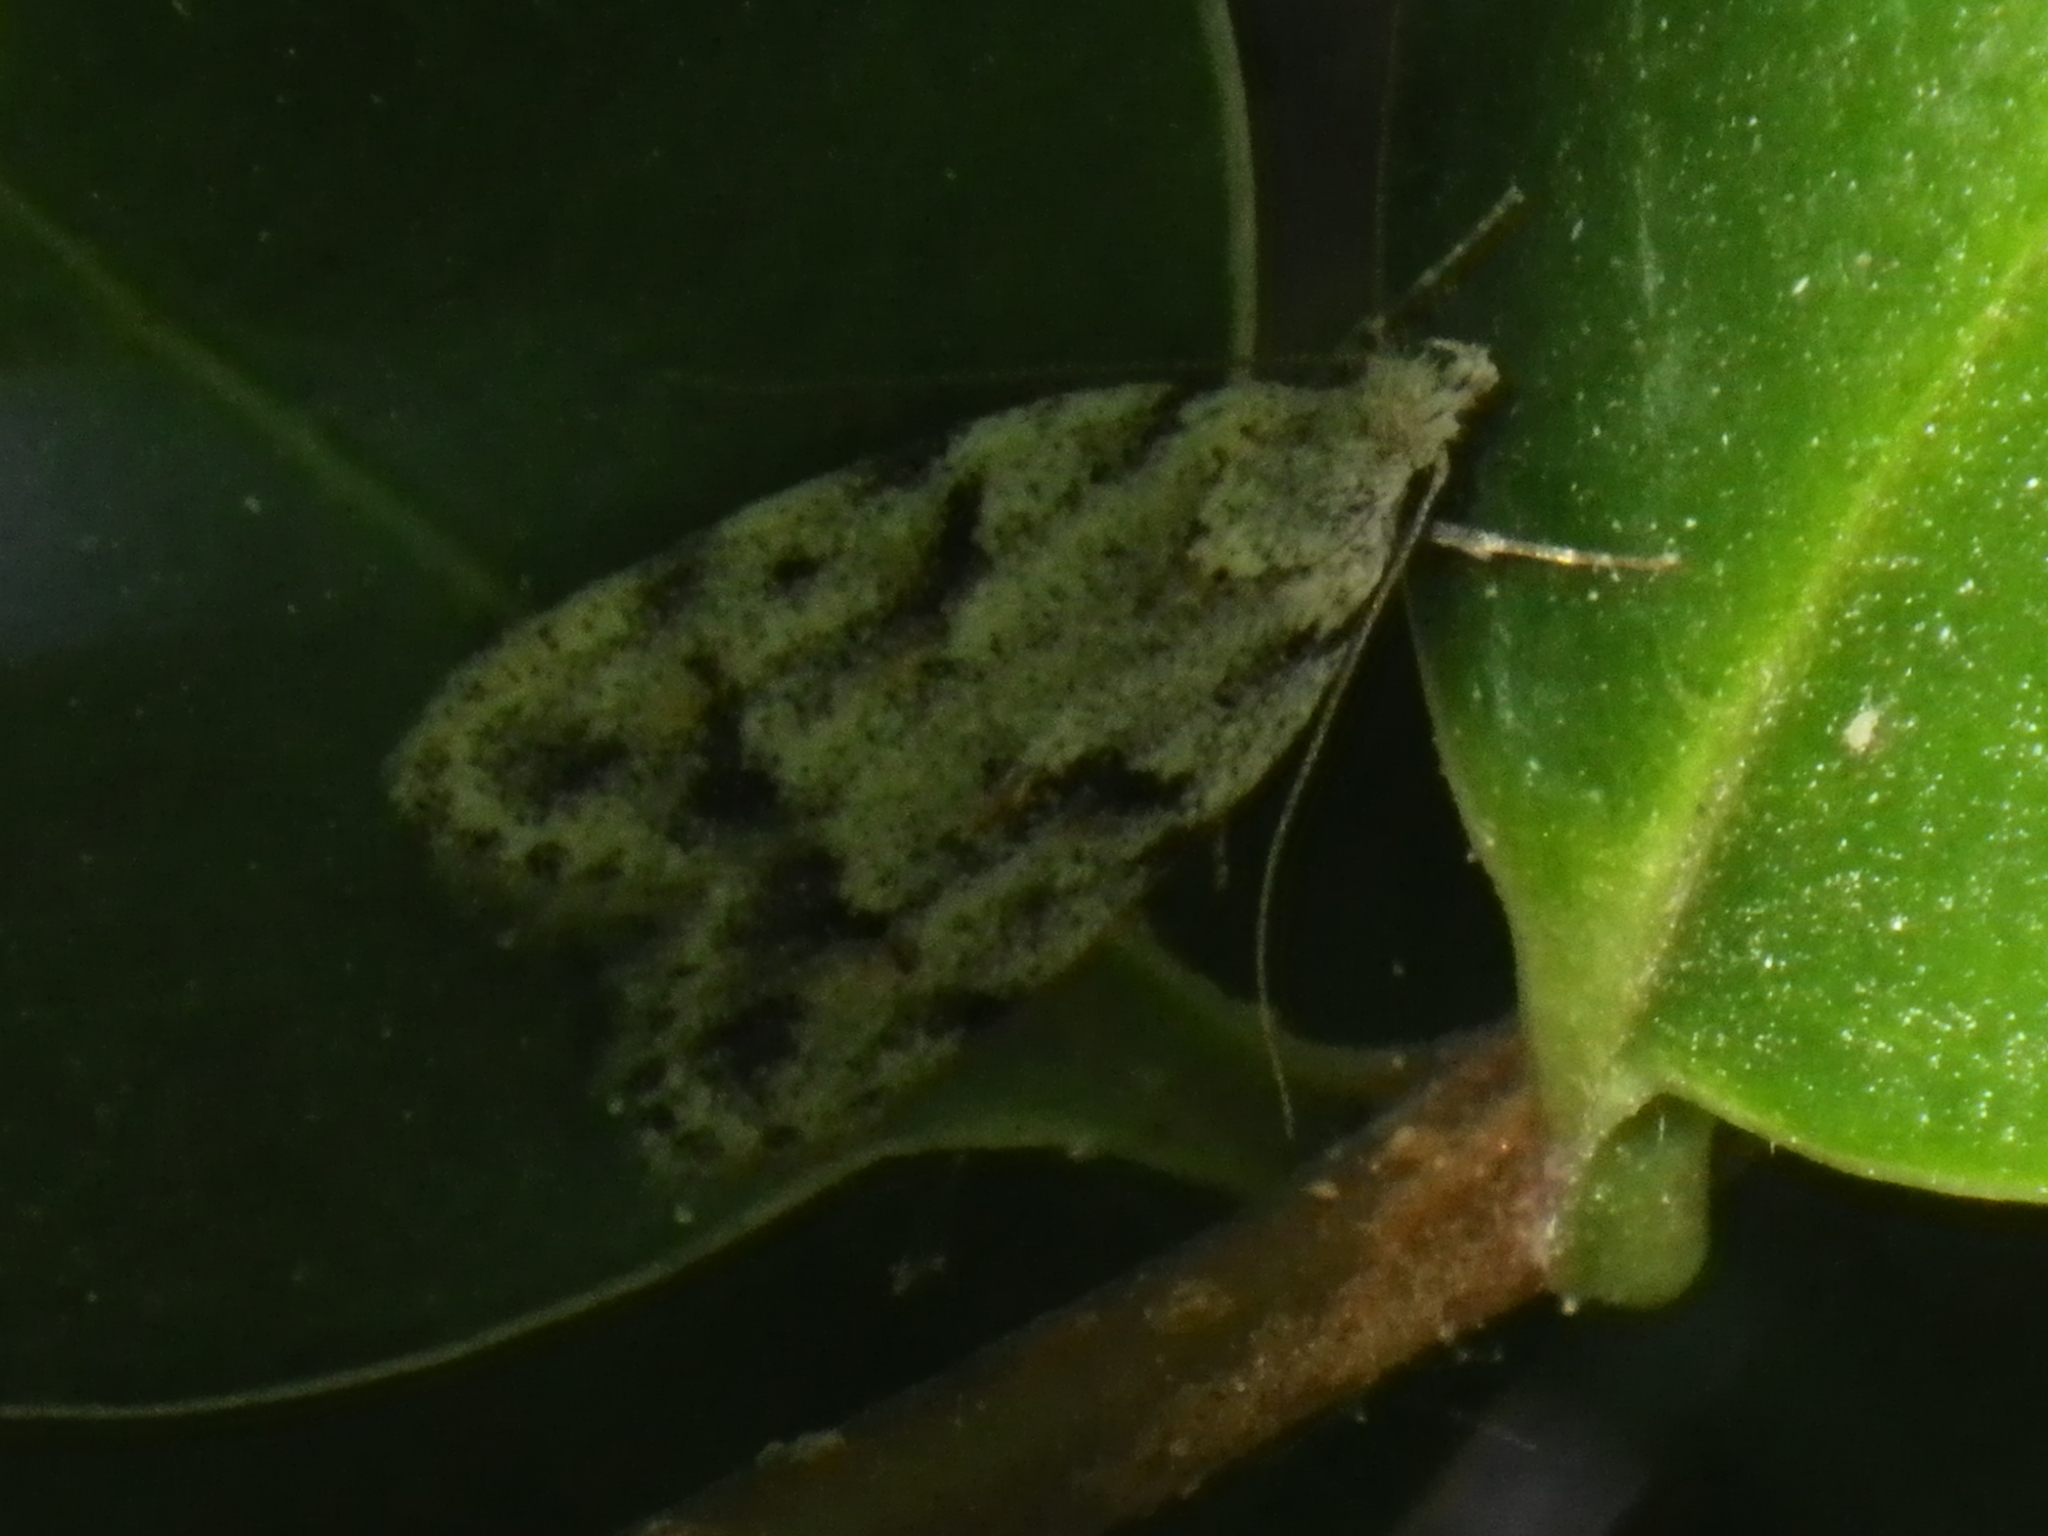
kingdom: Animalia
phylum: Arthropoda
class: Insecta
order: Lepidoptera
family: Autostichidae
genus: Symmoca
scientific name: Symmoca signatella
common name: Dockland obscure
